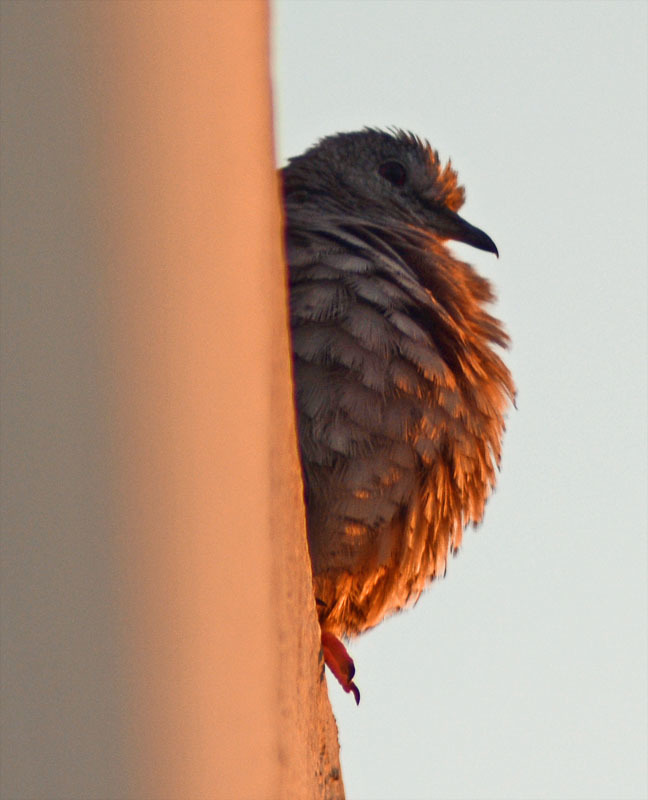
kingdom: Animalia
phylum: Chordata
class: Aves
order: Columbiformes
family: Columbidae
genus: Columbina
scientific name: Columbina inca
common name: Inca dove
